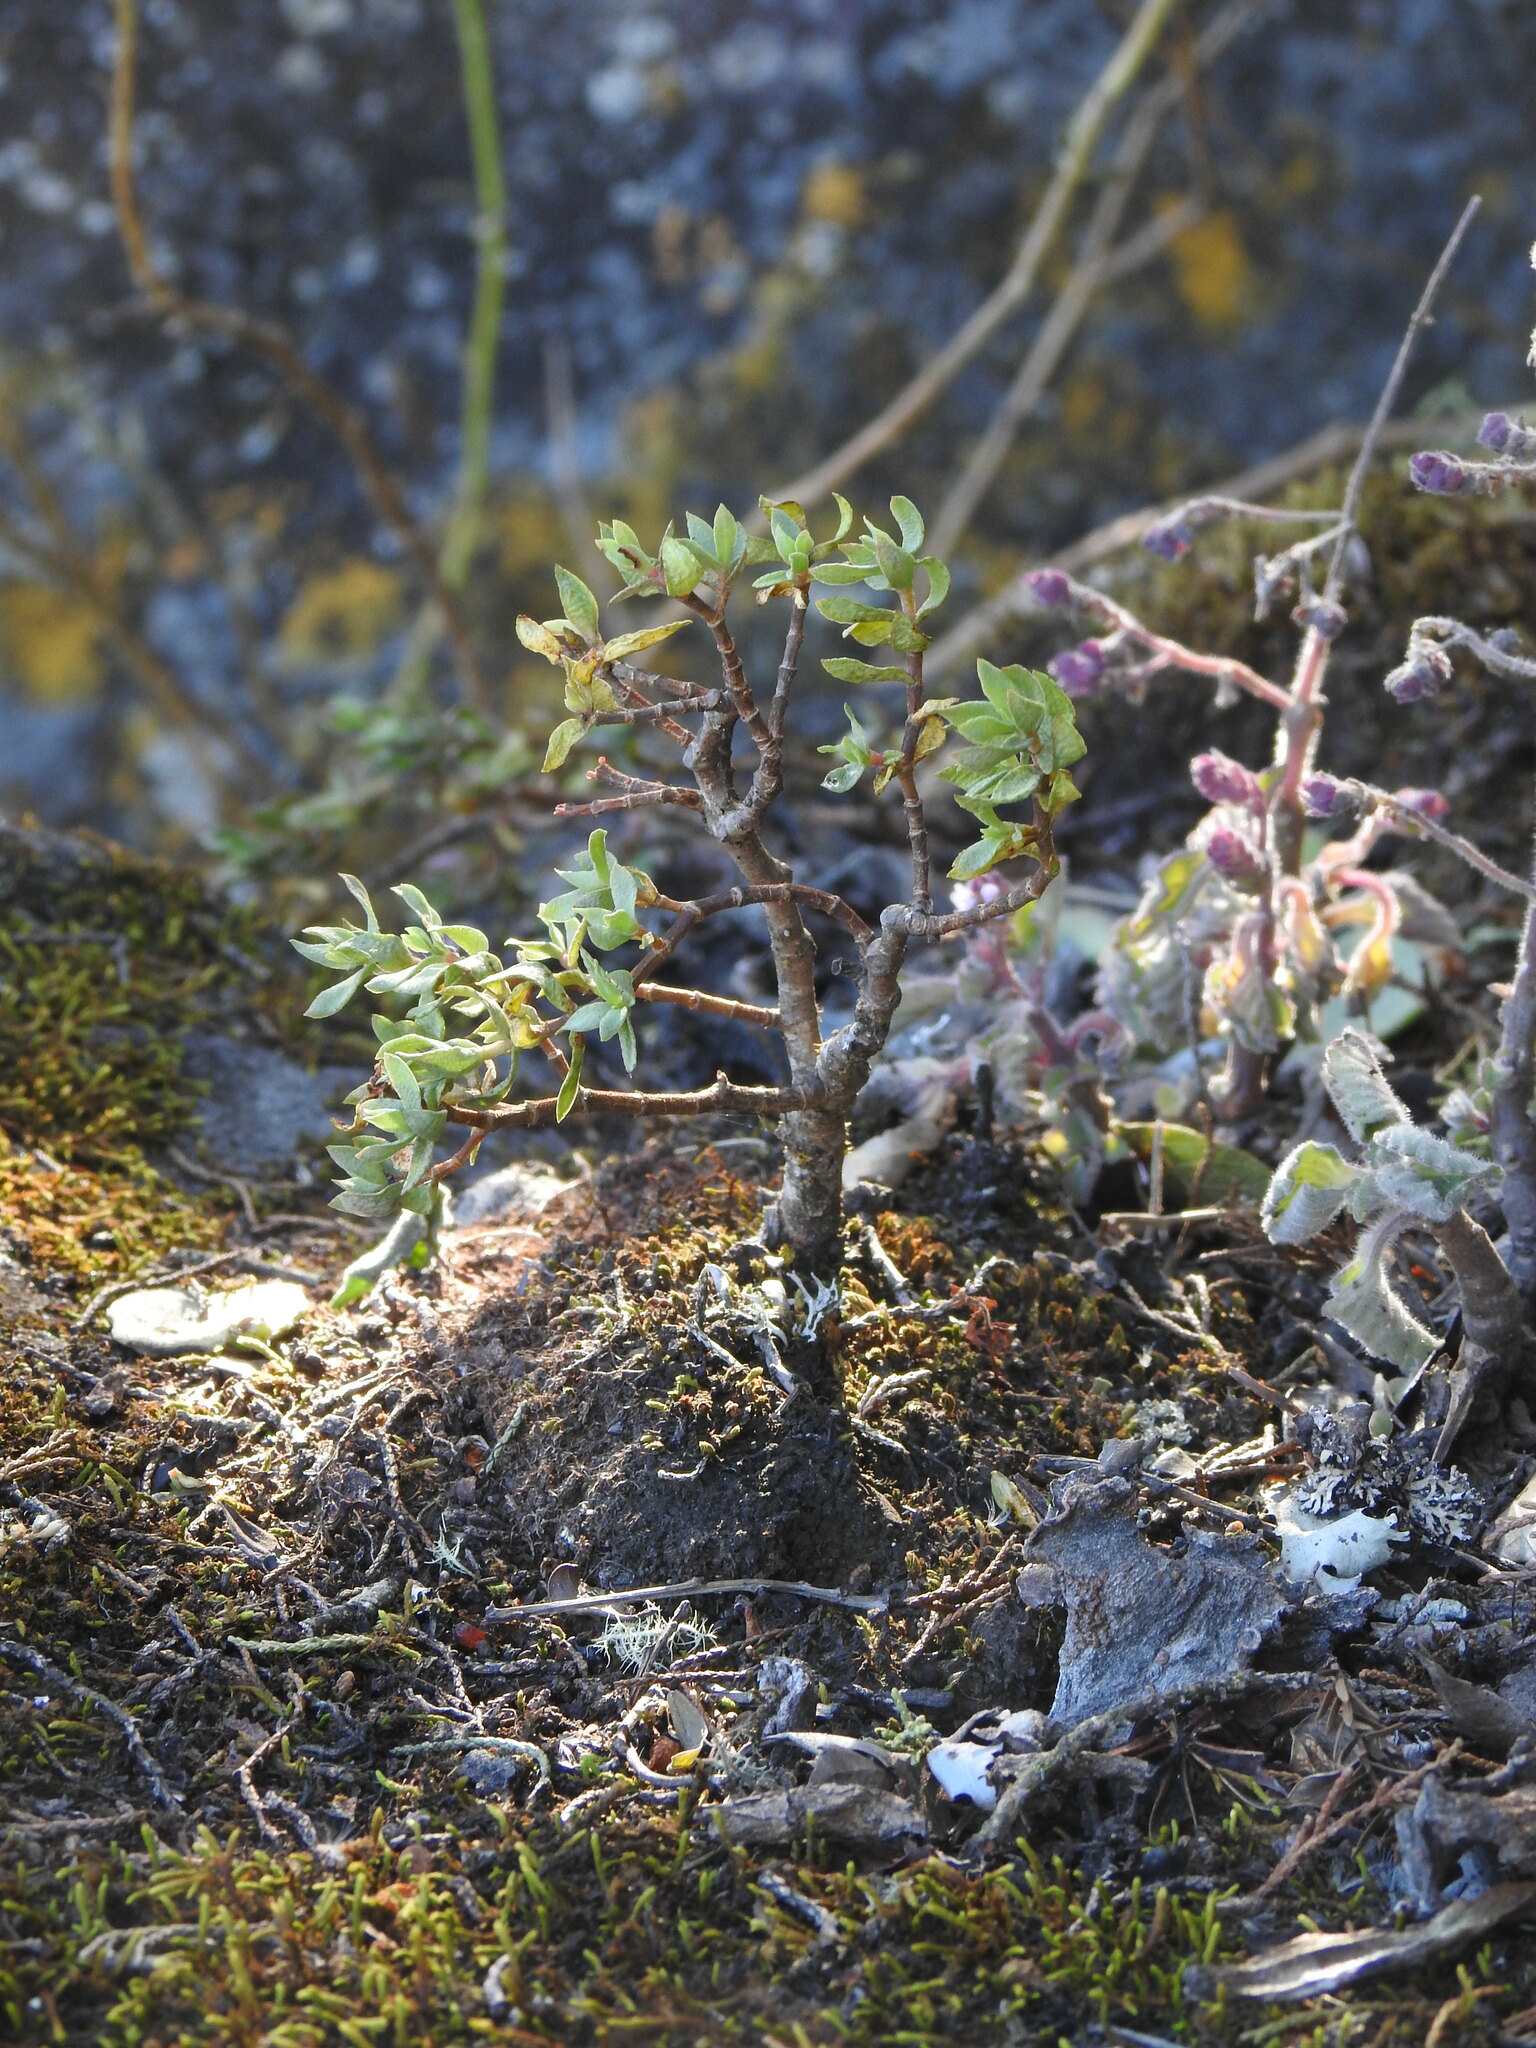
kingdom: Plantae
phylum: Tracheophyta
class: Magnoliopsida
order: Saxifragales
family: Crassulaceae
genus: Crassula
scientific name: Crassula sarcocaulis
